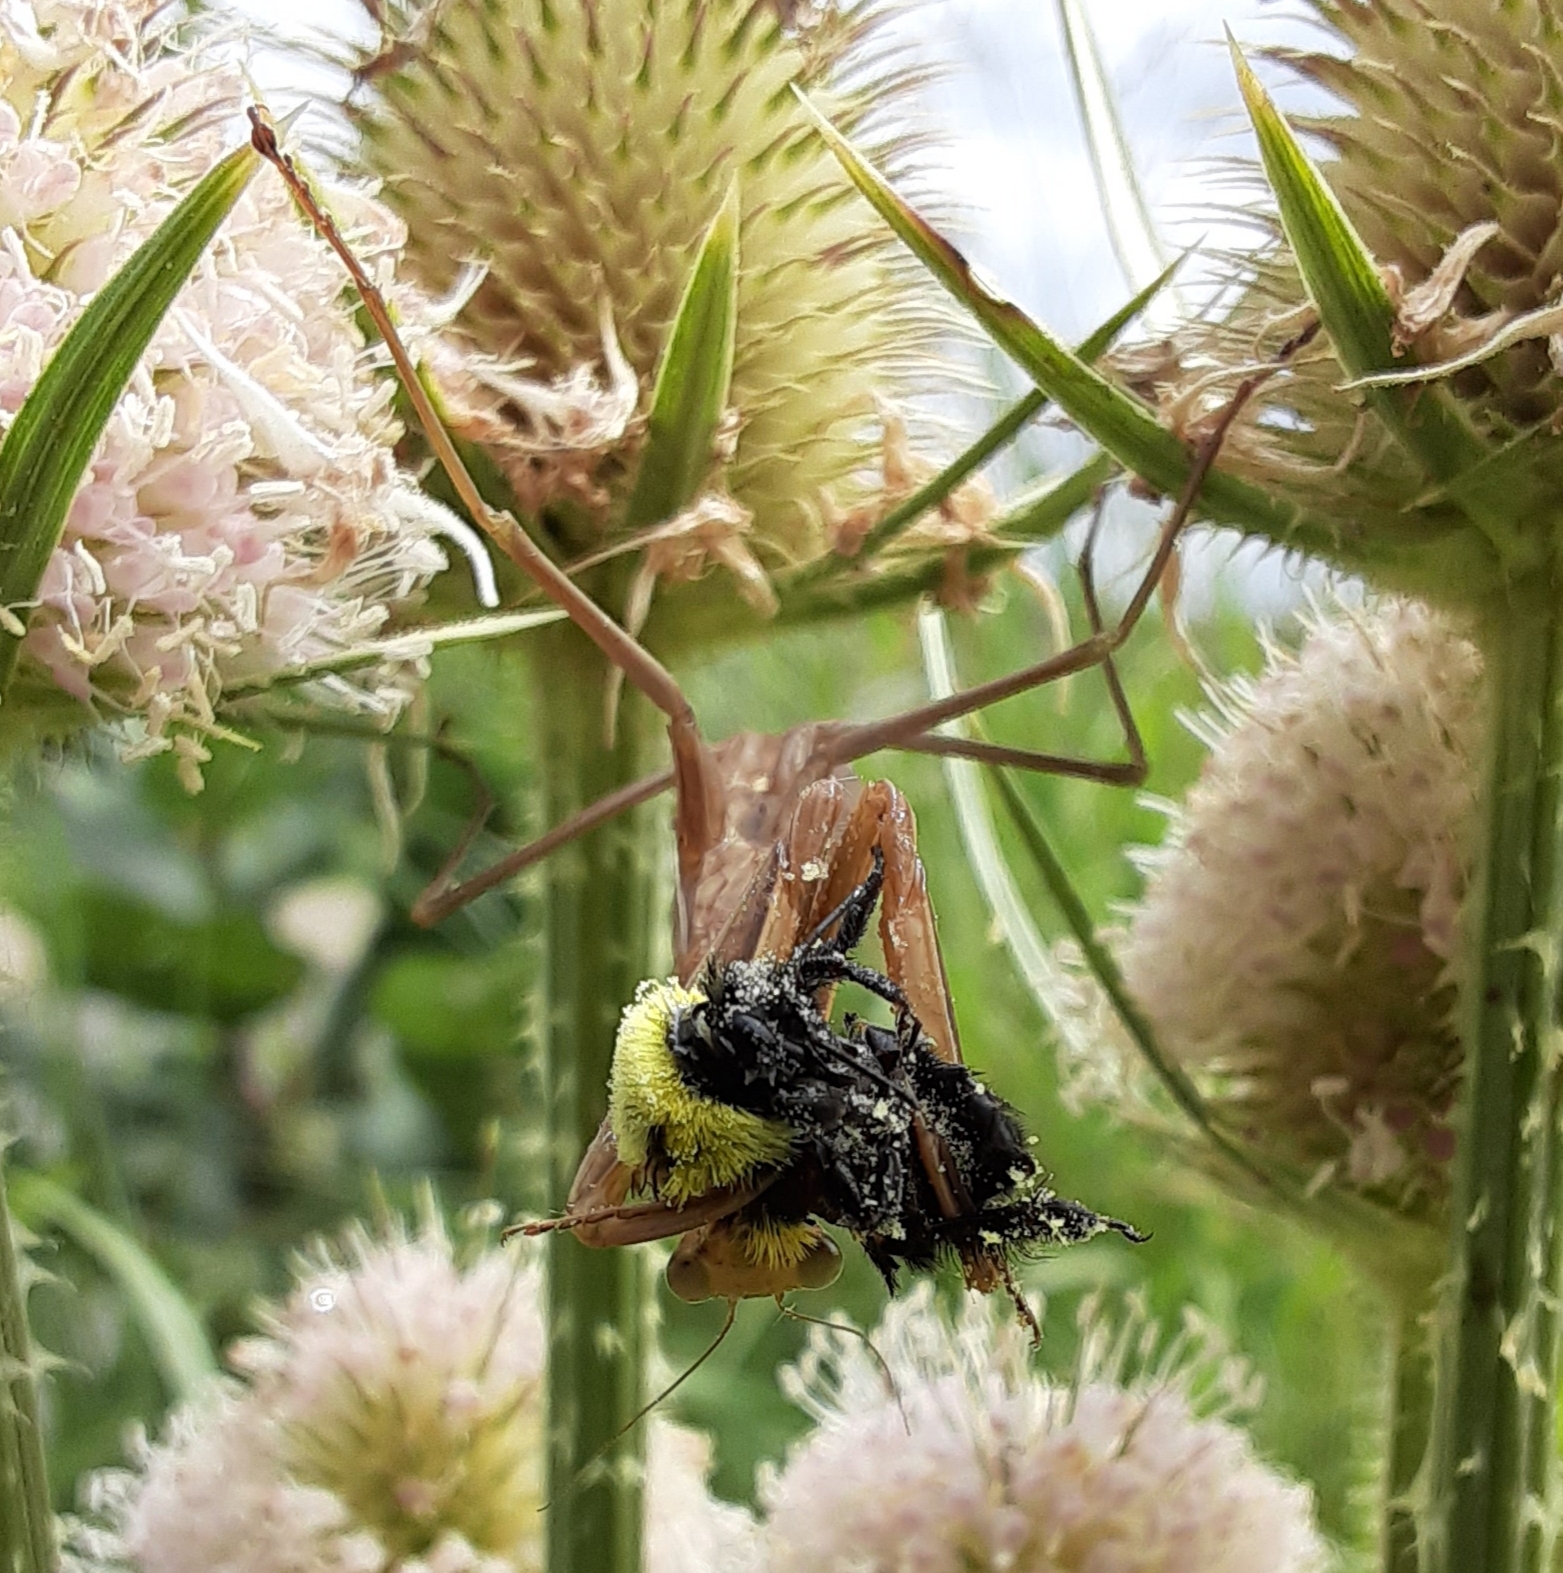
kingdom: Animalia
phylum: Arthropoda
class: Insecta
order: Mantodea
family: Mantidae
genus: Mantis
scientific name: Mantis religiosa
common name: Praying mantis
